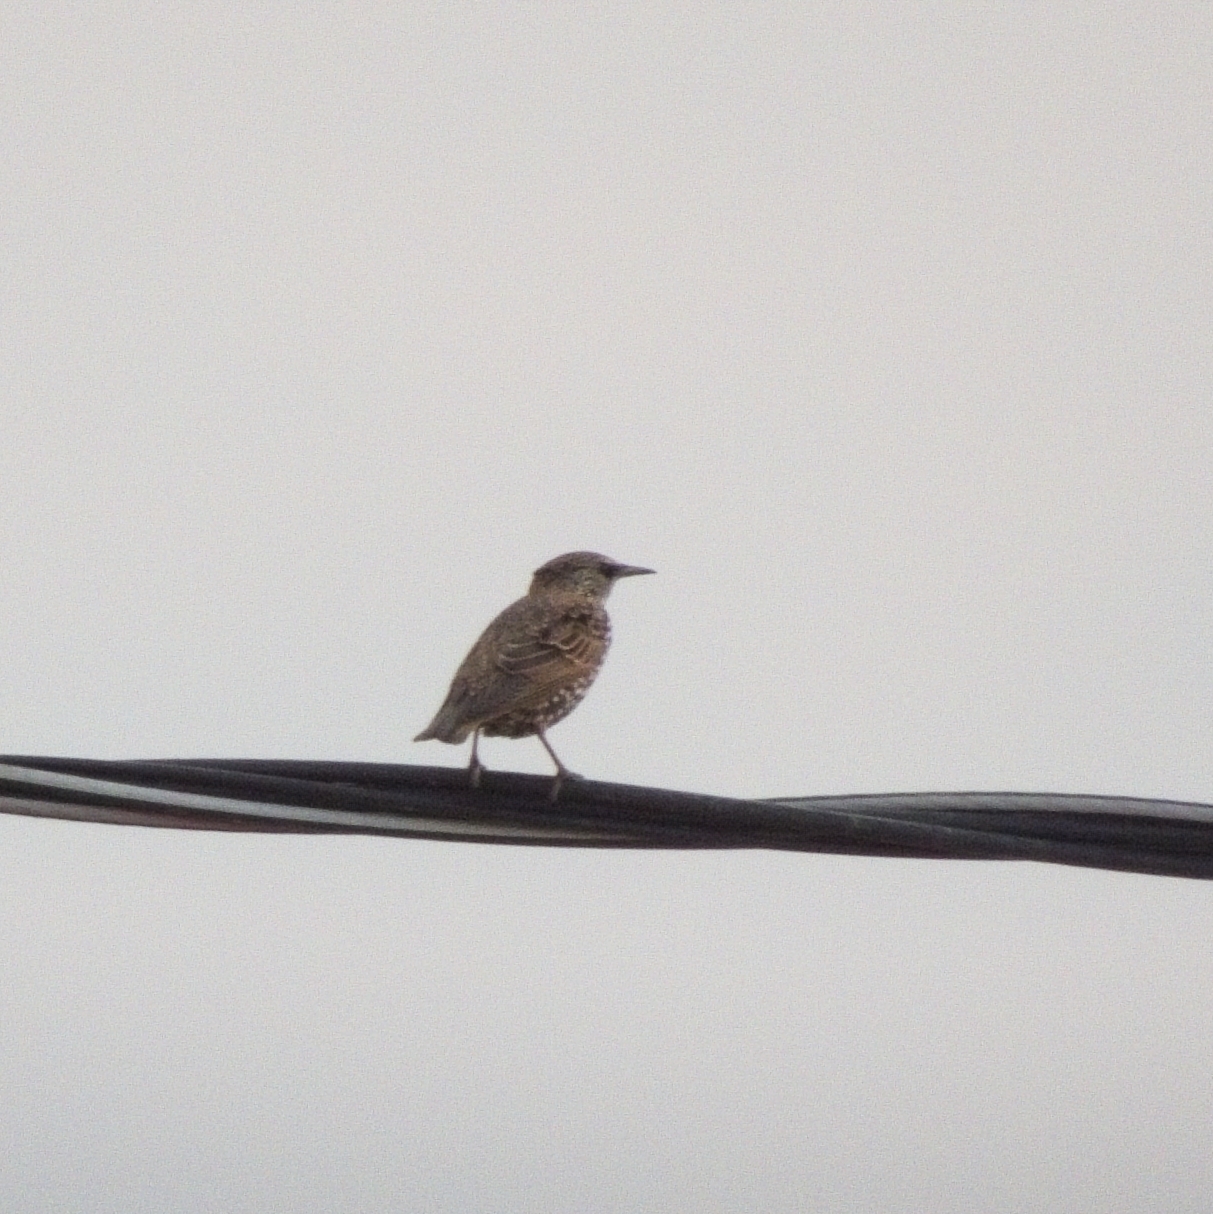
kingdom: Animalia
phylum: Chordata
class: Aves
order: Passeriformes
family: Sturnidae
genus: Sturnus
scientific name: Sturnus vulgaris
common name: Common starling
